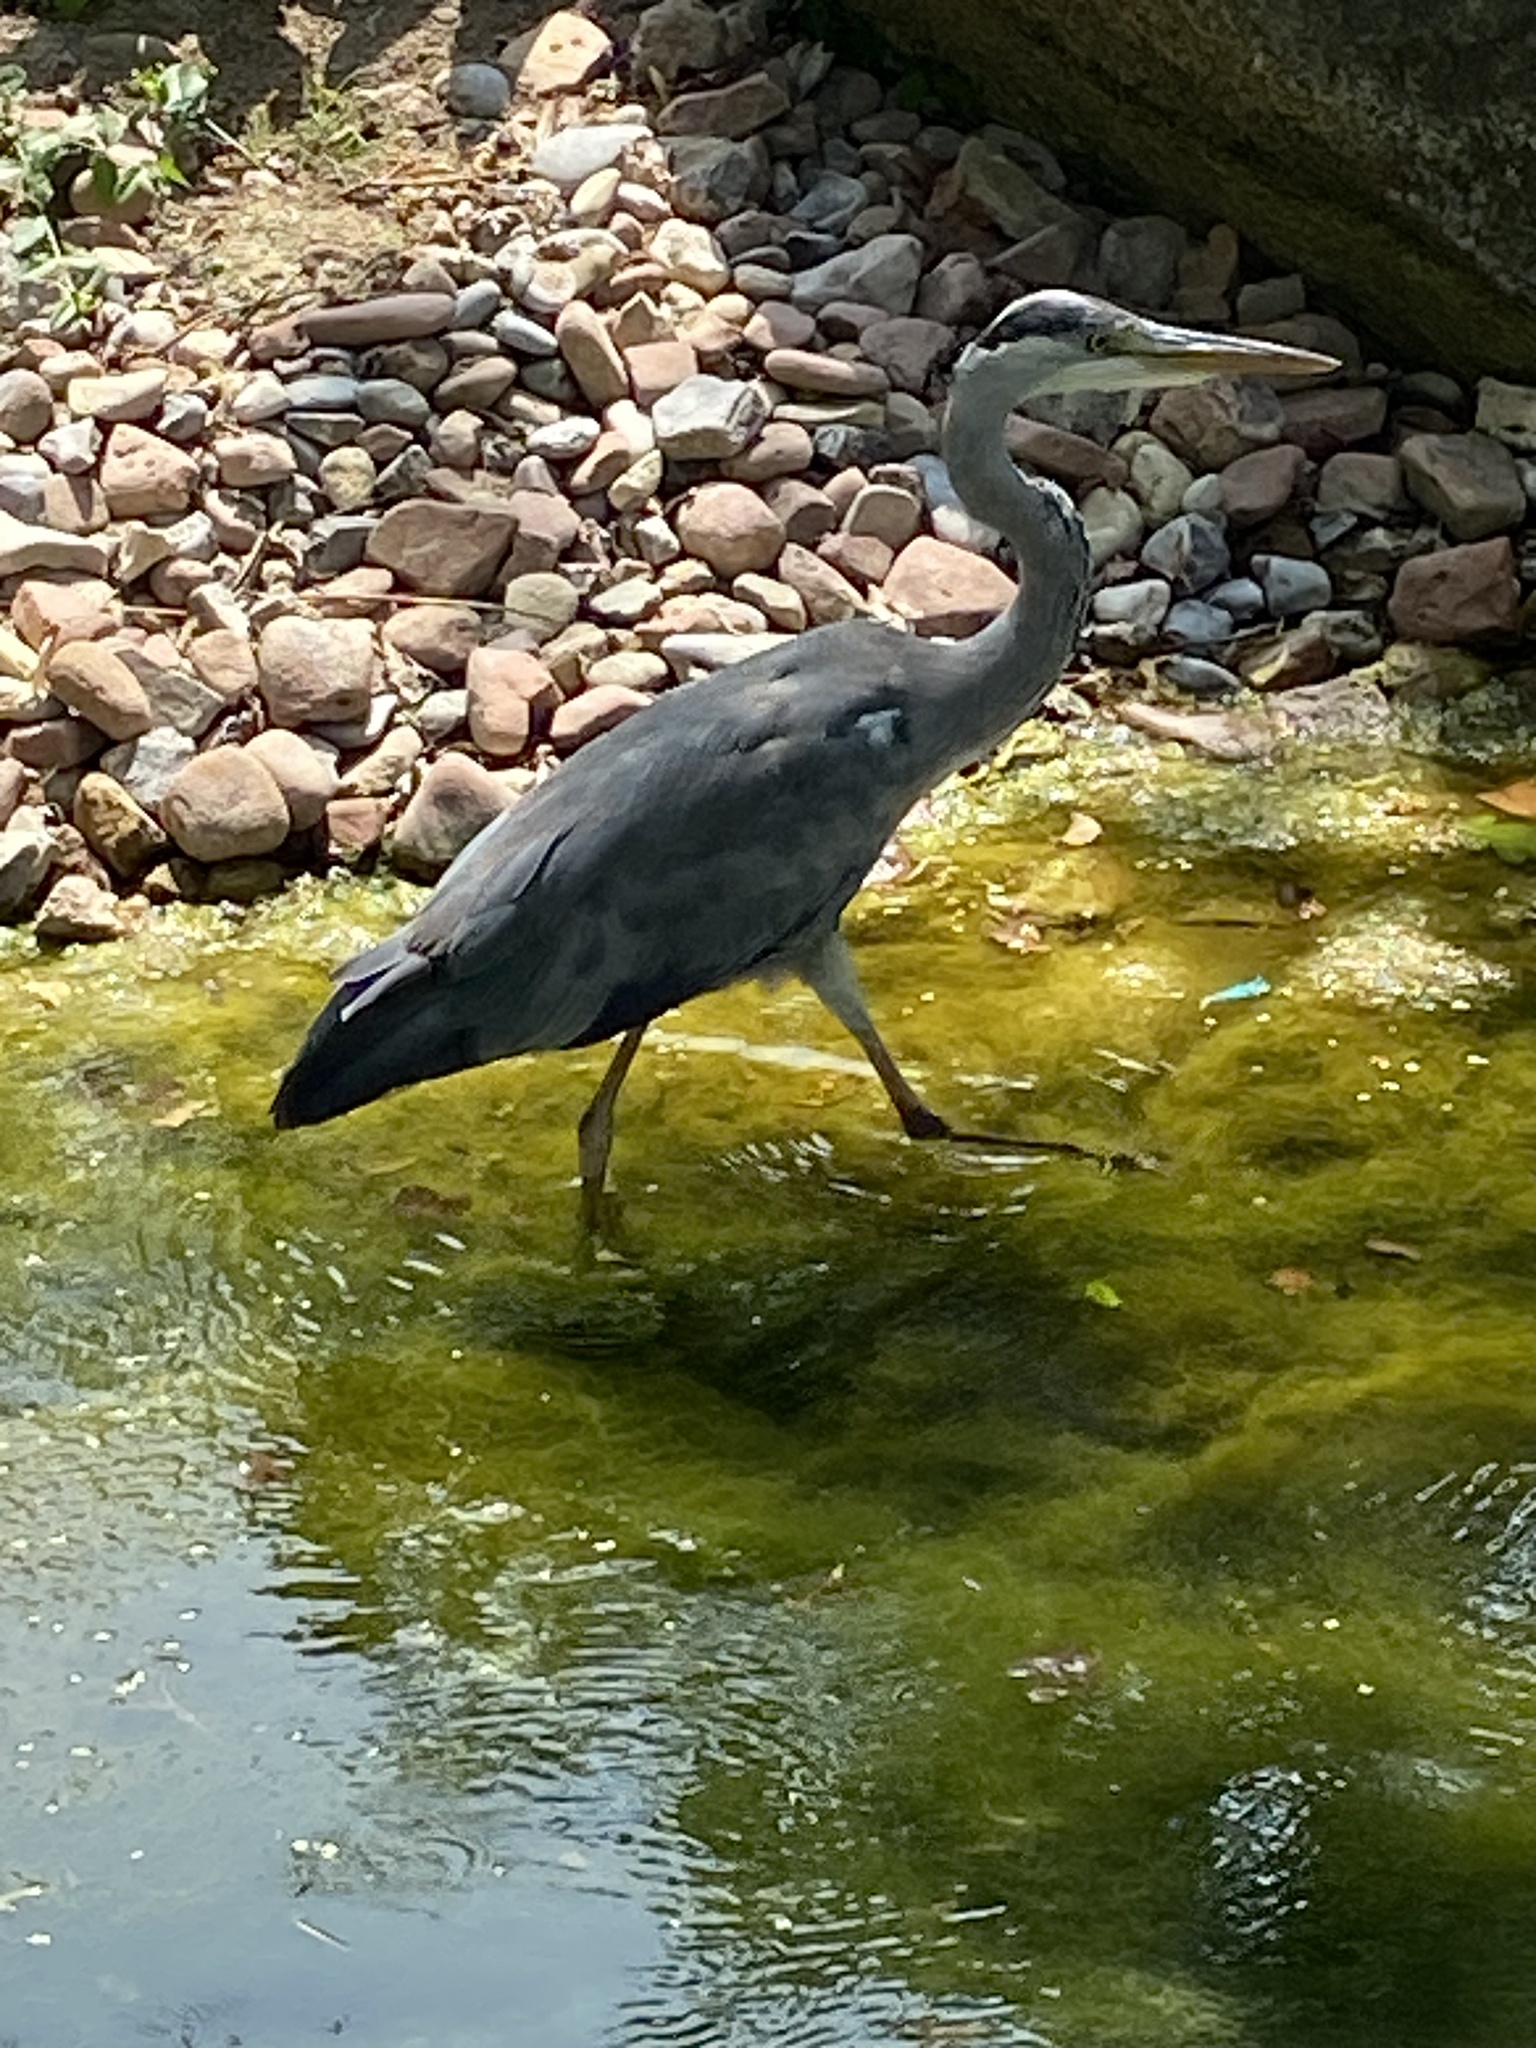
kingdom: Animalia
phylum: Chordata
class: Aves
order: Pelecaniformes
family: Ardeidae
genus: Ardea
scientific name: Ardea cinerea
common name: Grey heron
